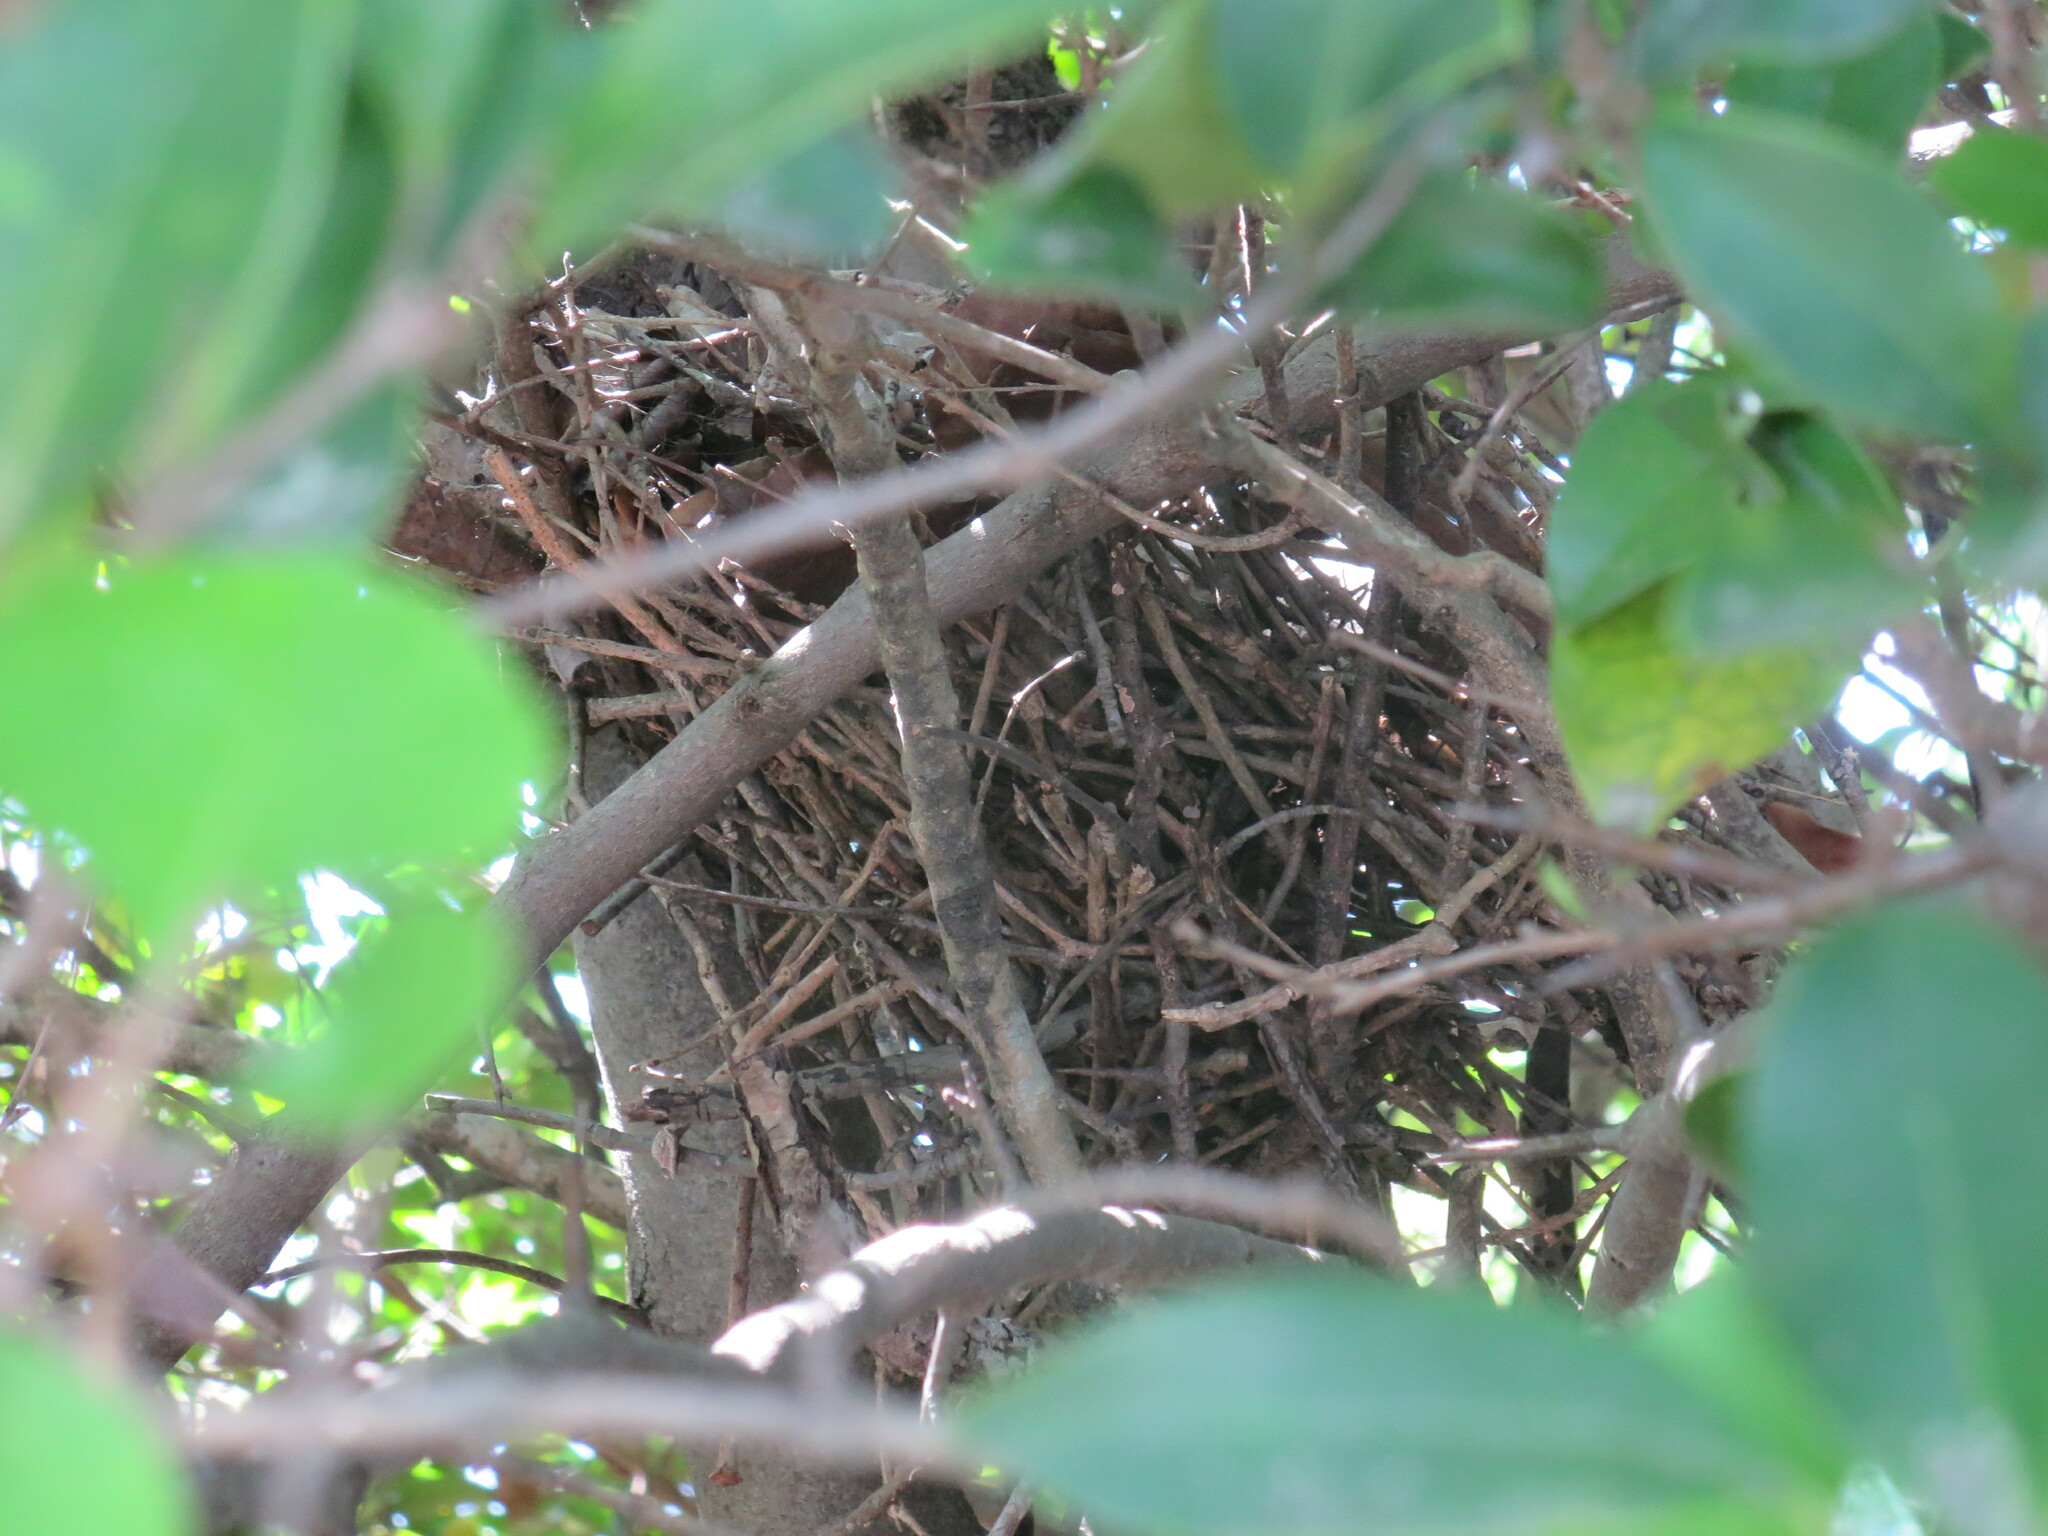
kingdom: Animalia
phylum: Chordata
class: Aves
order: Passeriformes
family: Mimidae
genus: Toxostoma
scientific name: Toxostoma rufum
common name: Brown thrasher
